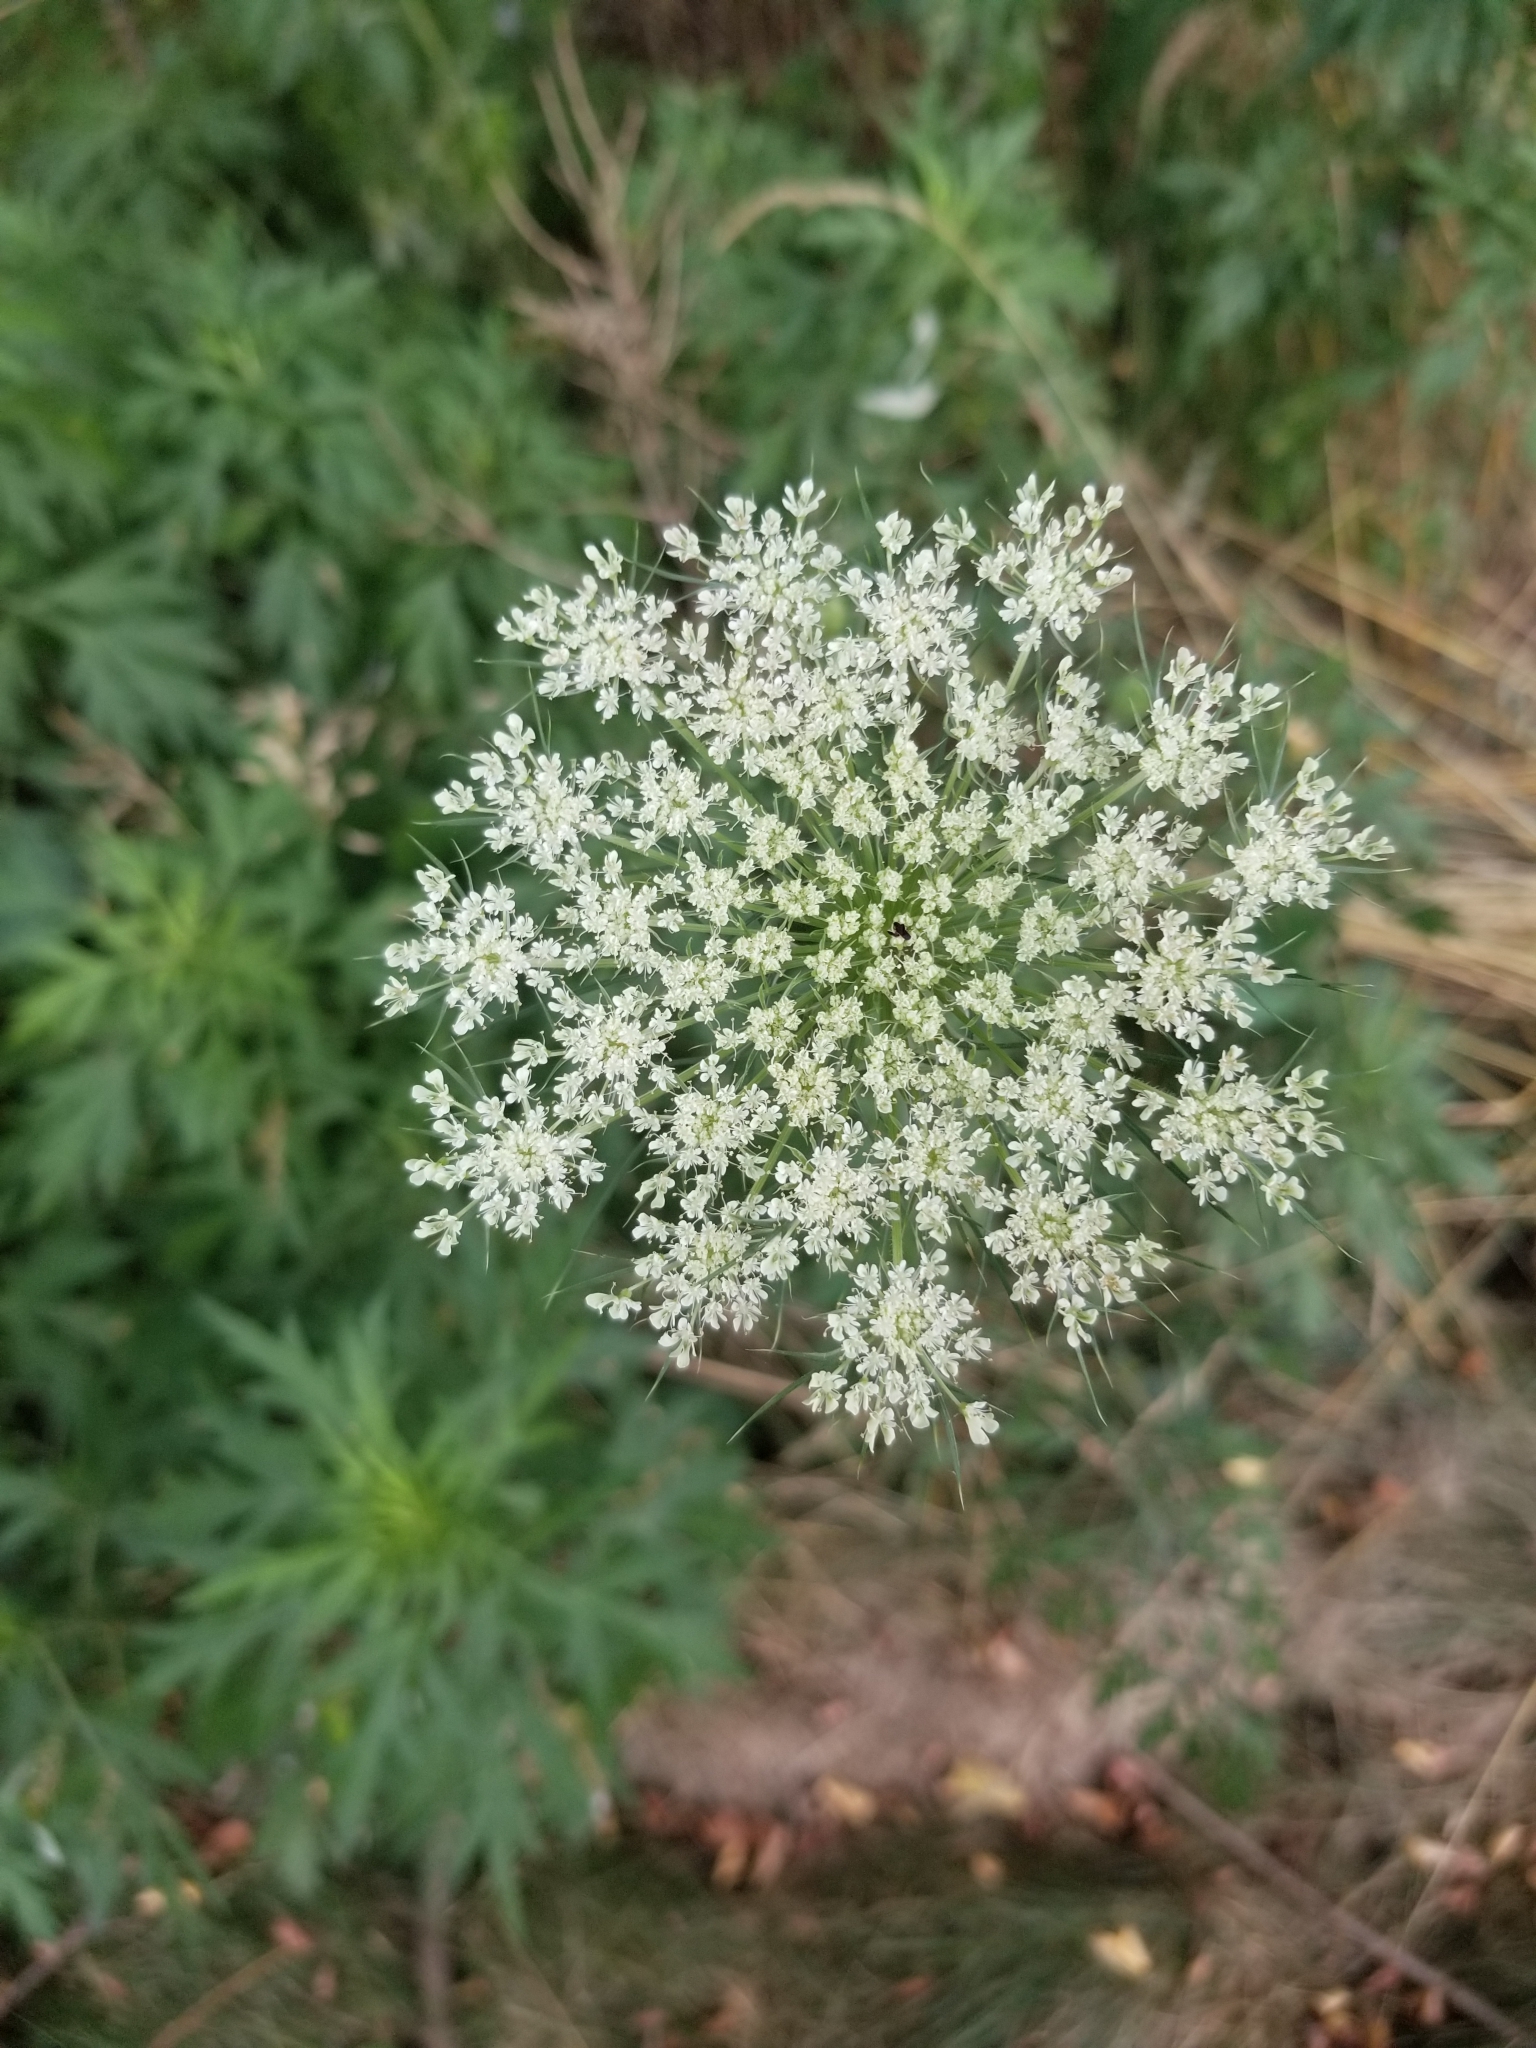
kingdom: Plantae
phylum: Tracheophyta
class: Magnoliopsida
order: Apiales
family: Apiaceae
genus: Daucus
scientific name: Daucus carota
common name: Wild carrot
